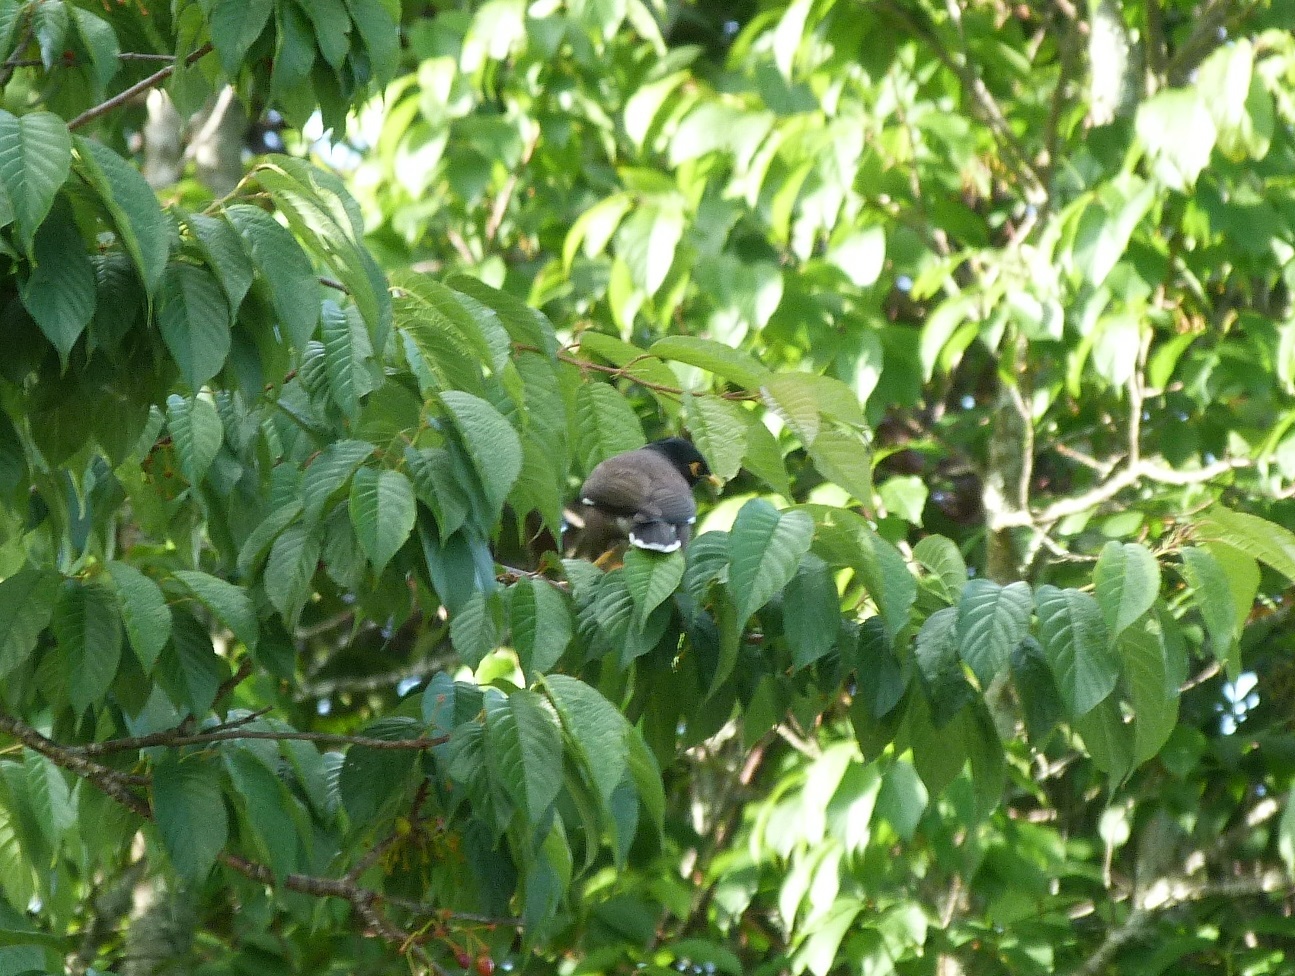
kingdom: Animalia
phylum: Chordata
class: Aves
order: Passeriformes
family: Sturnidae
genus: Acridotheres
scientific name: Acridotheres tristis
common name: Common myna
